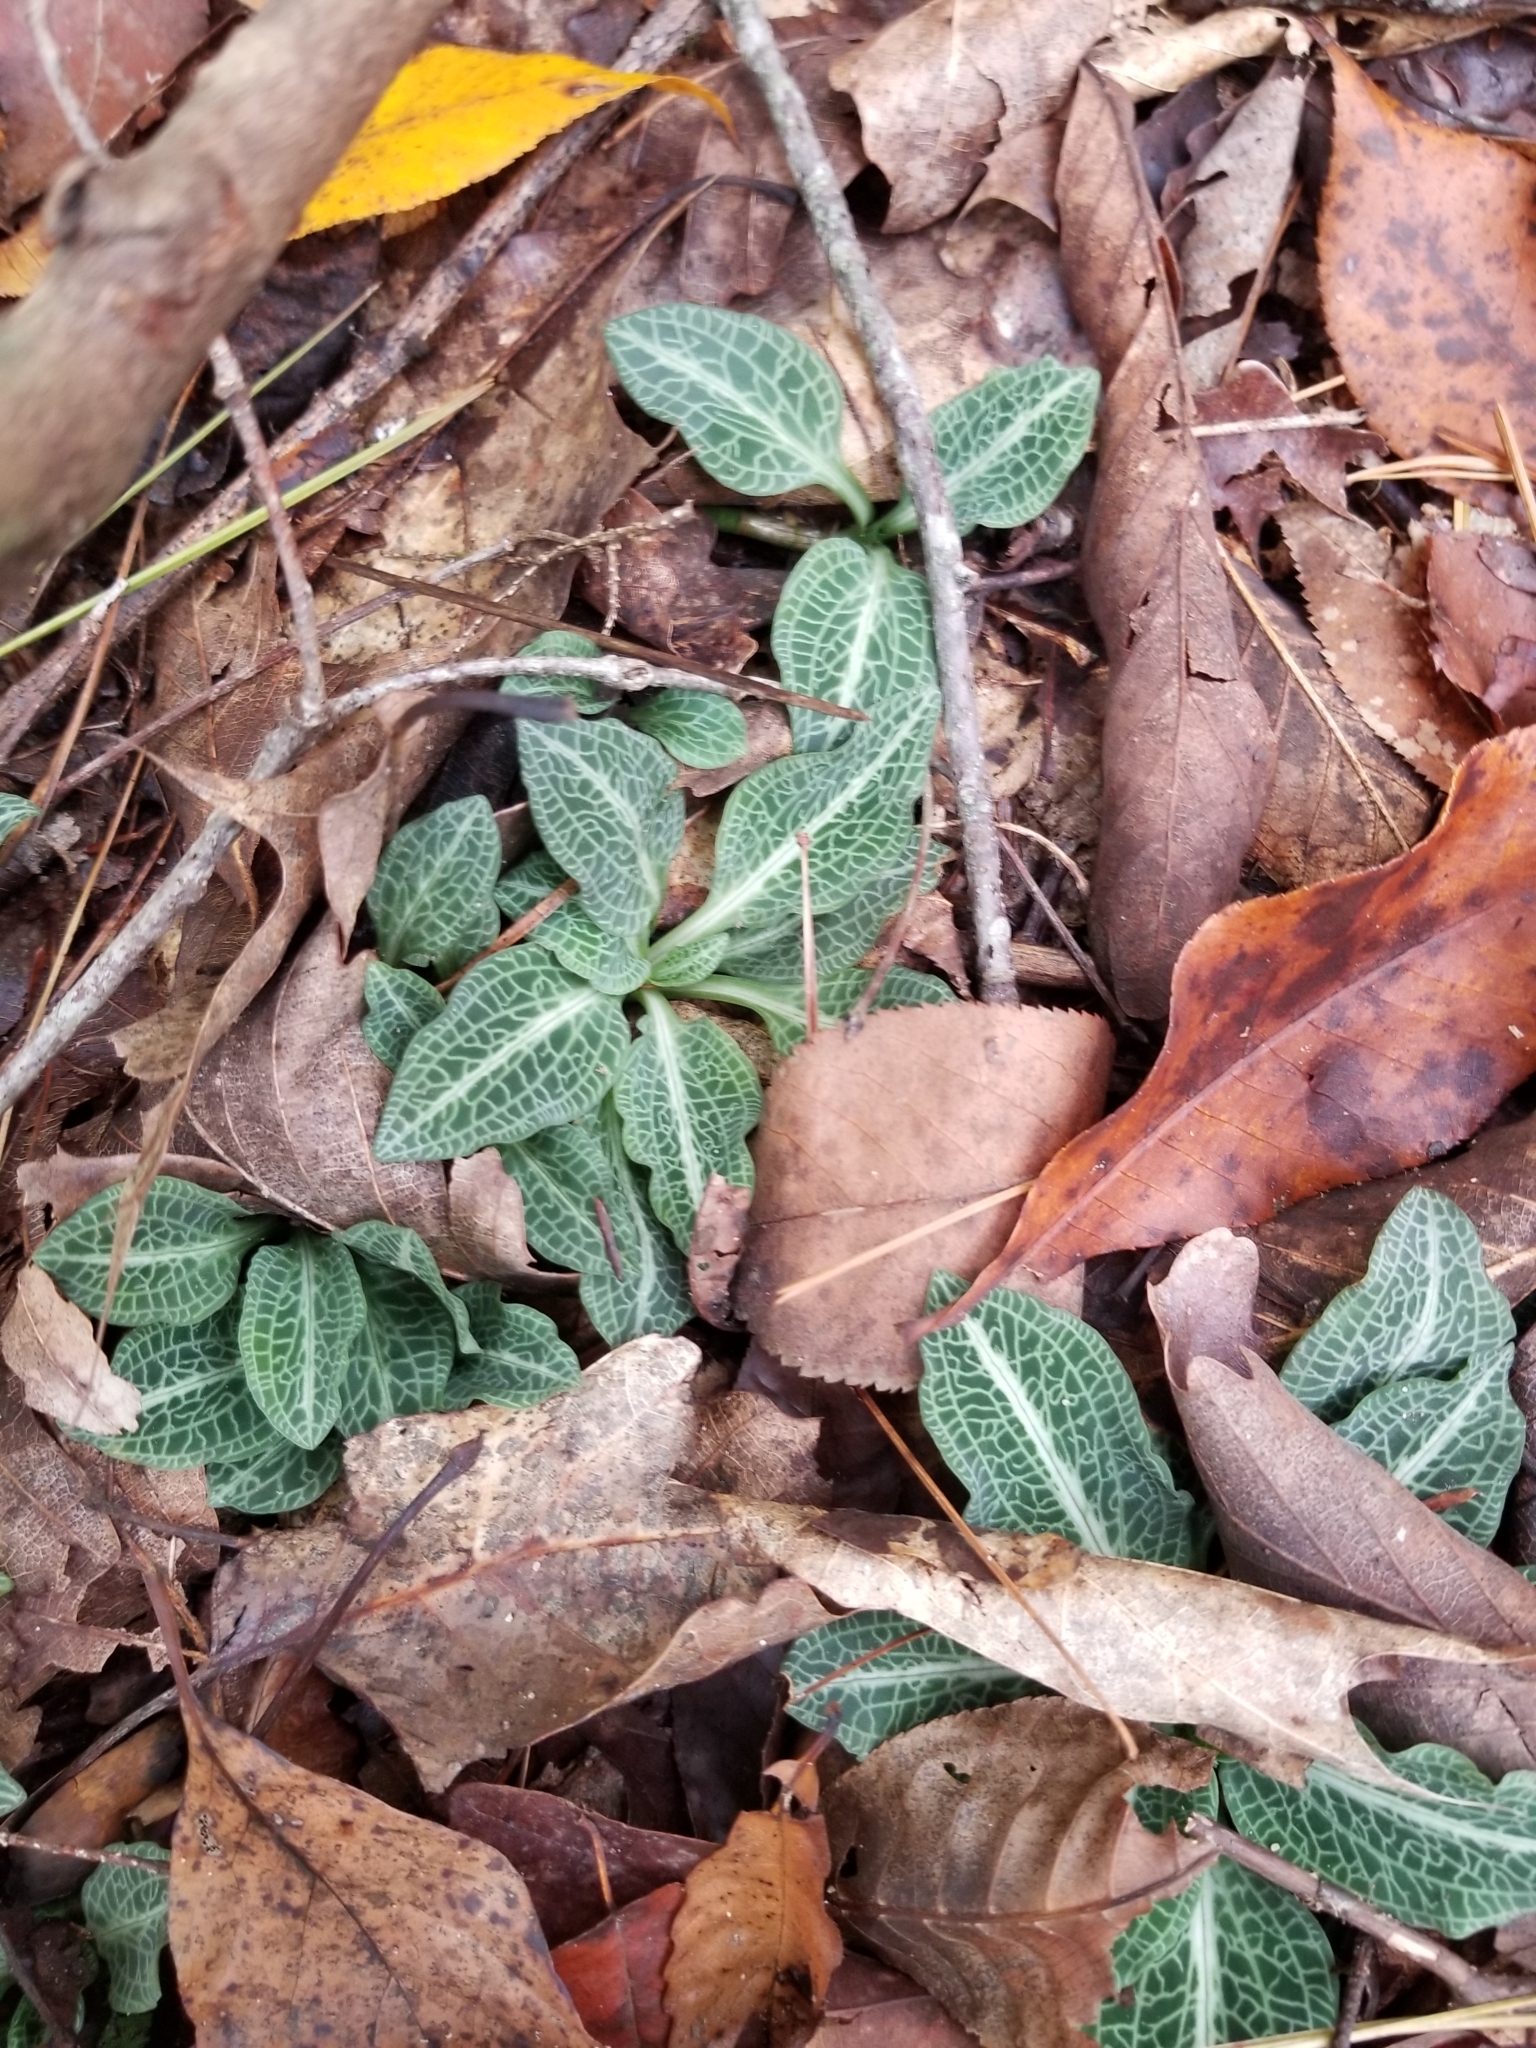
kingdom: Plantae
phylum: Tracheophyta
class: Liliopsida
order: Asparagales
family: Orchidaceae
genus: Goodyera
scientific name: Goodyera pubescens
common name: Downy rattlesnake-plantain
